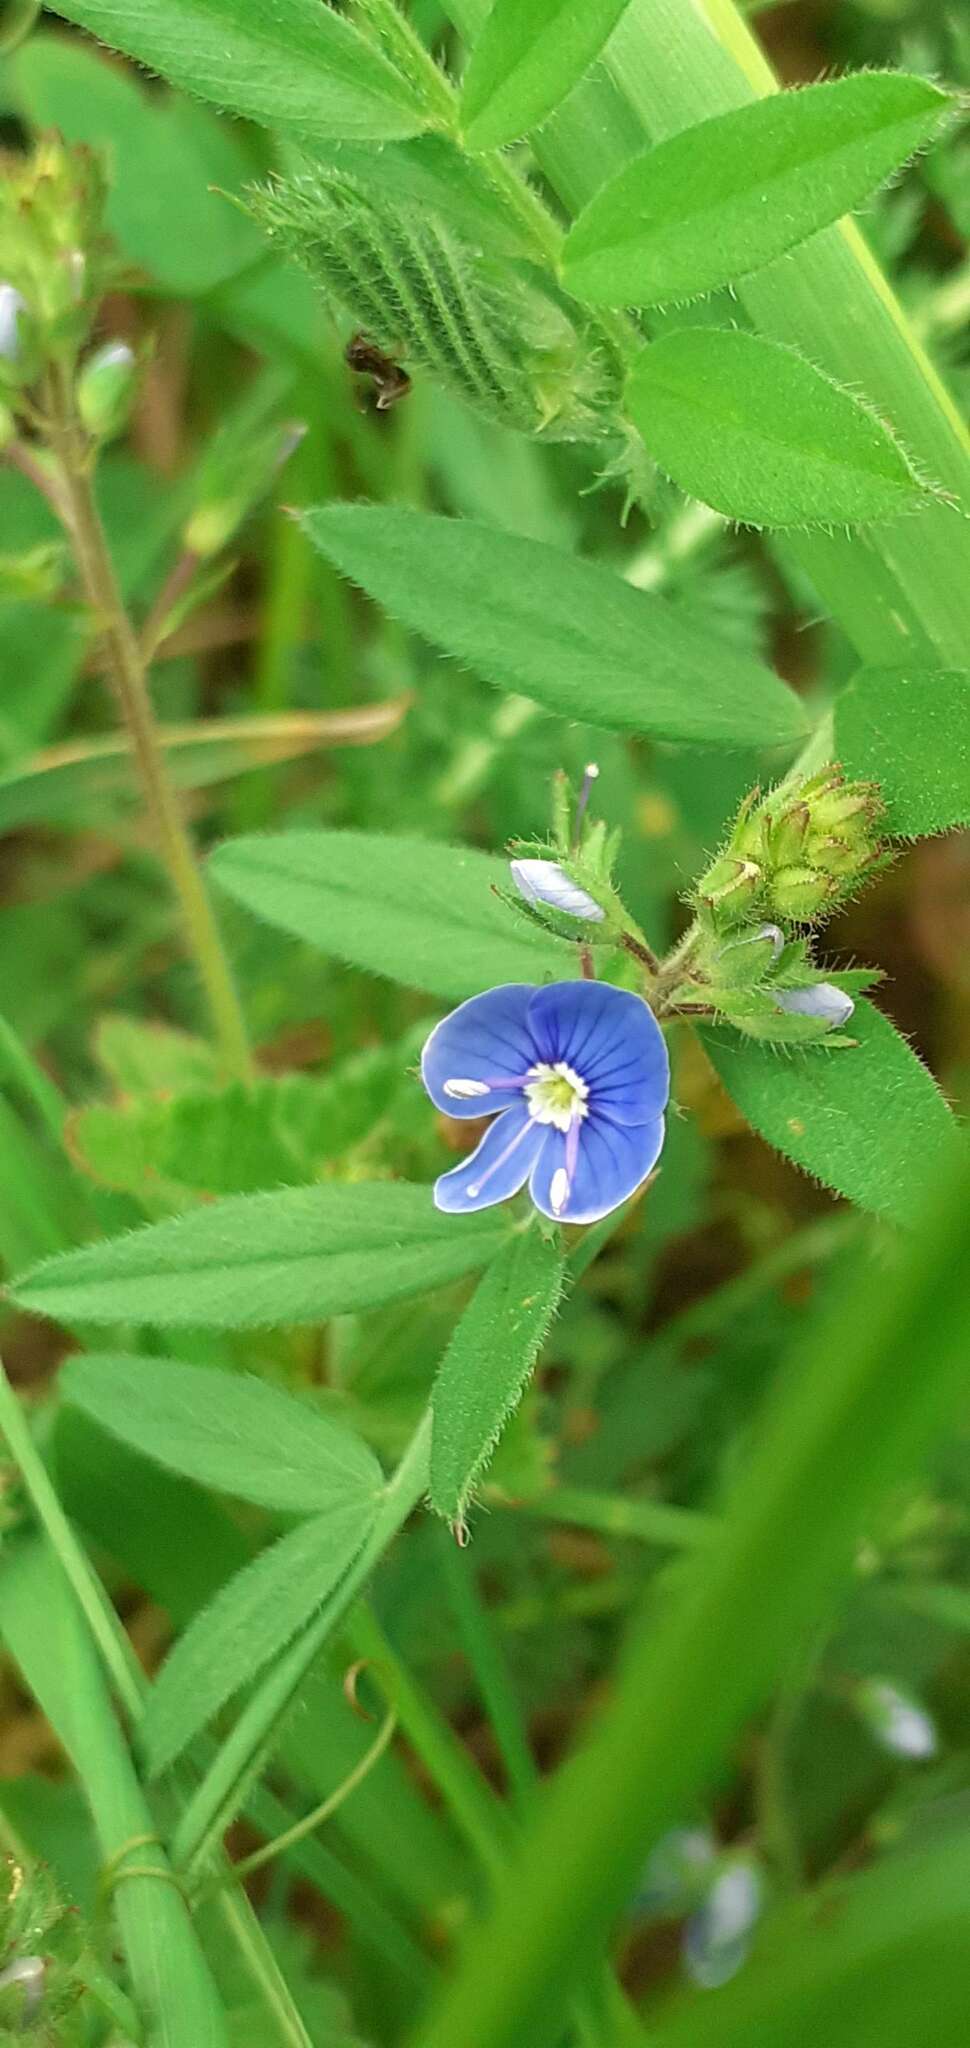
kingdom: Plantae
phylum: Tracheophyta
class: Magnoliopsida
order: Lamiales
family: Plantaginaceae
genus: Veronica
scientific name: Veronica chamaedrys
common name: Germander speedwell
